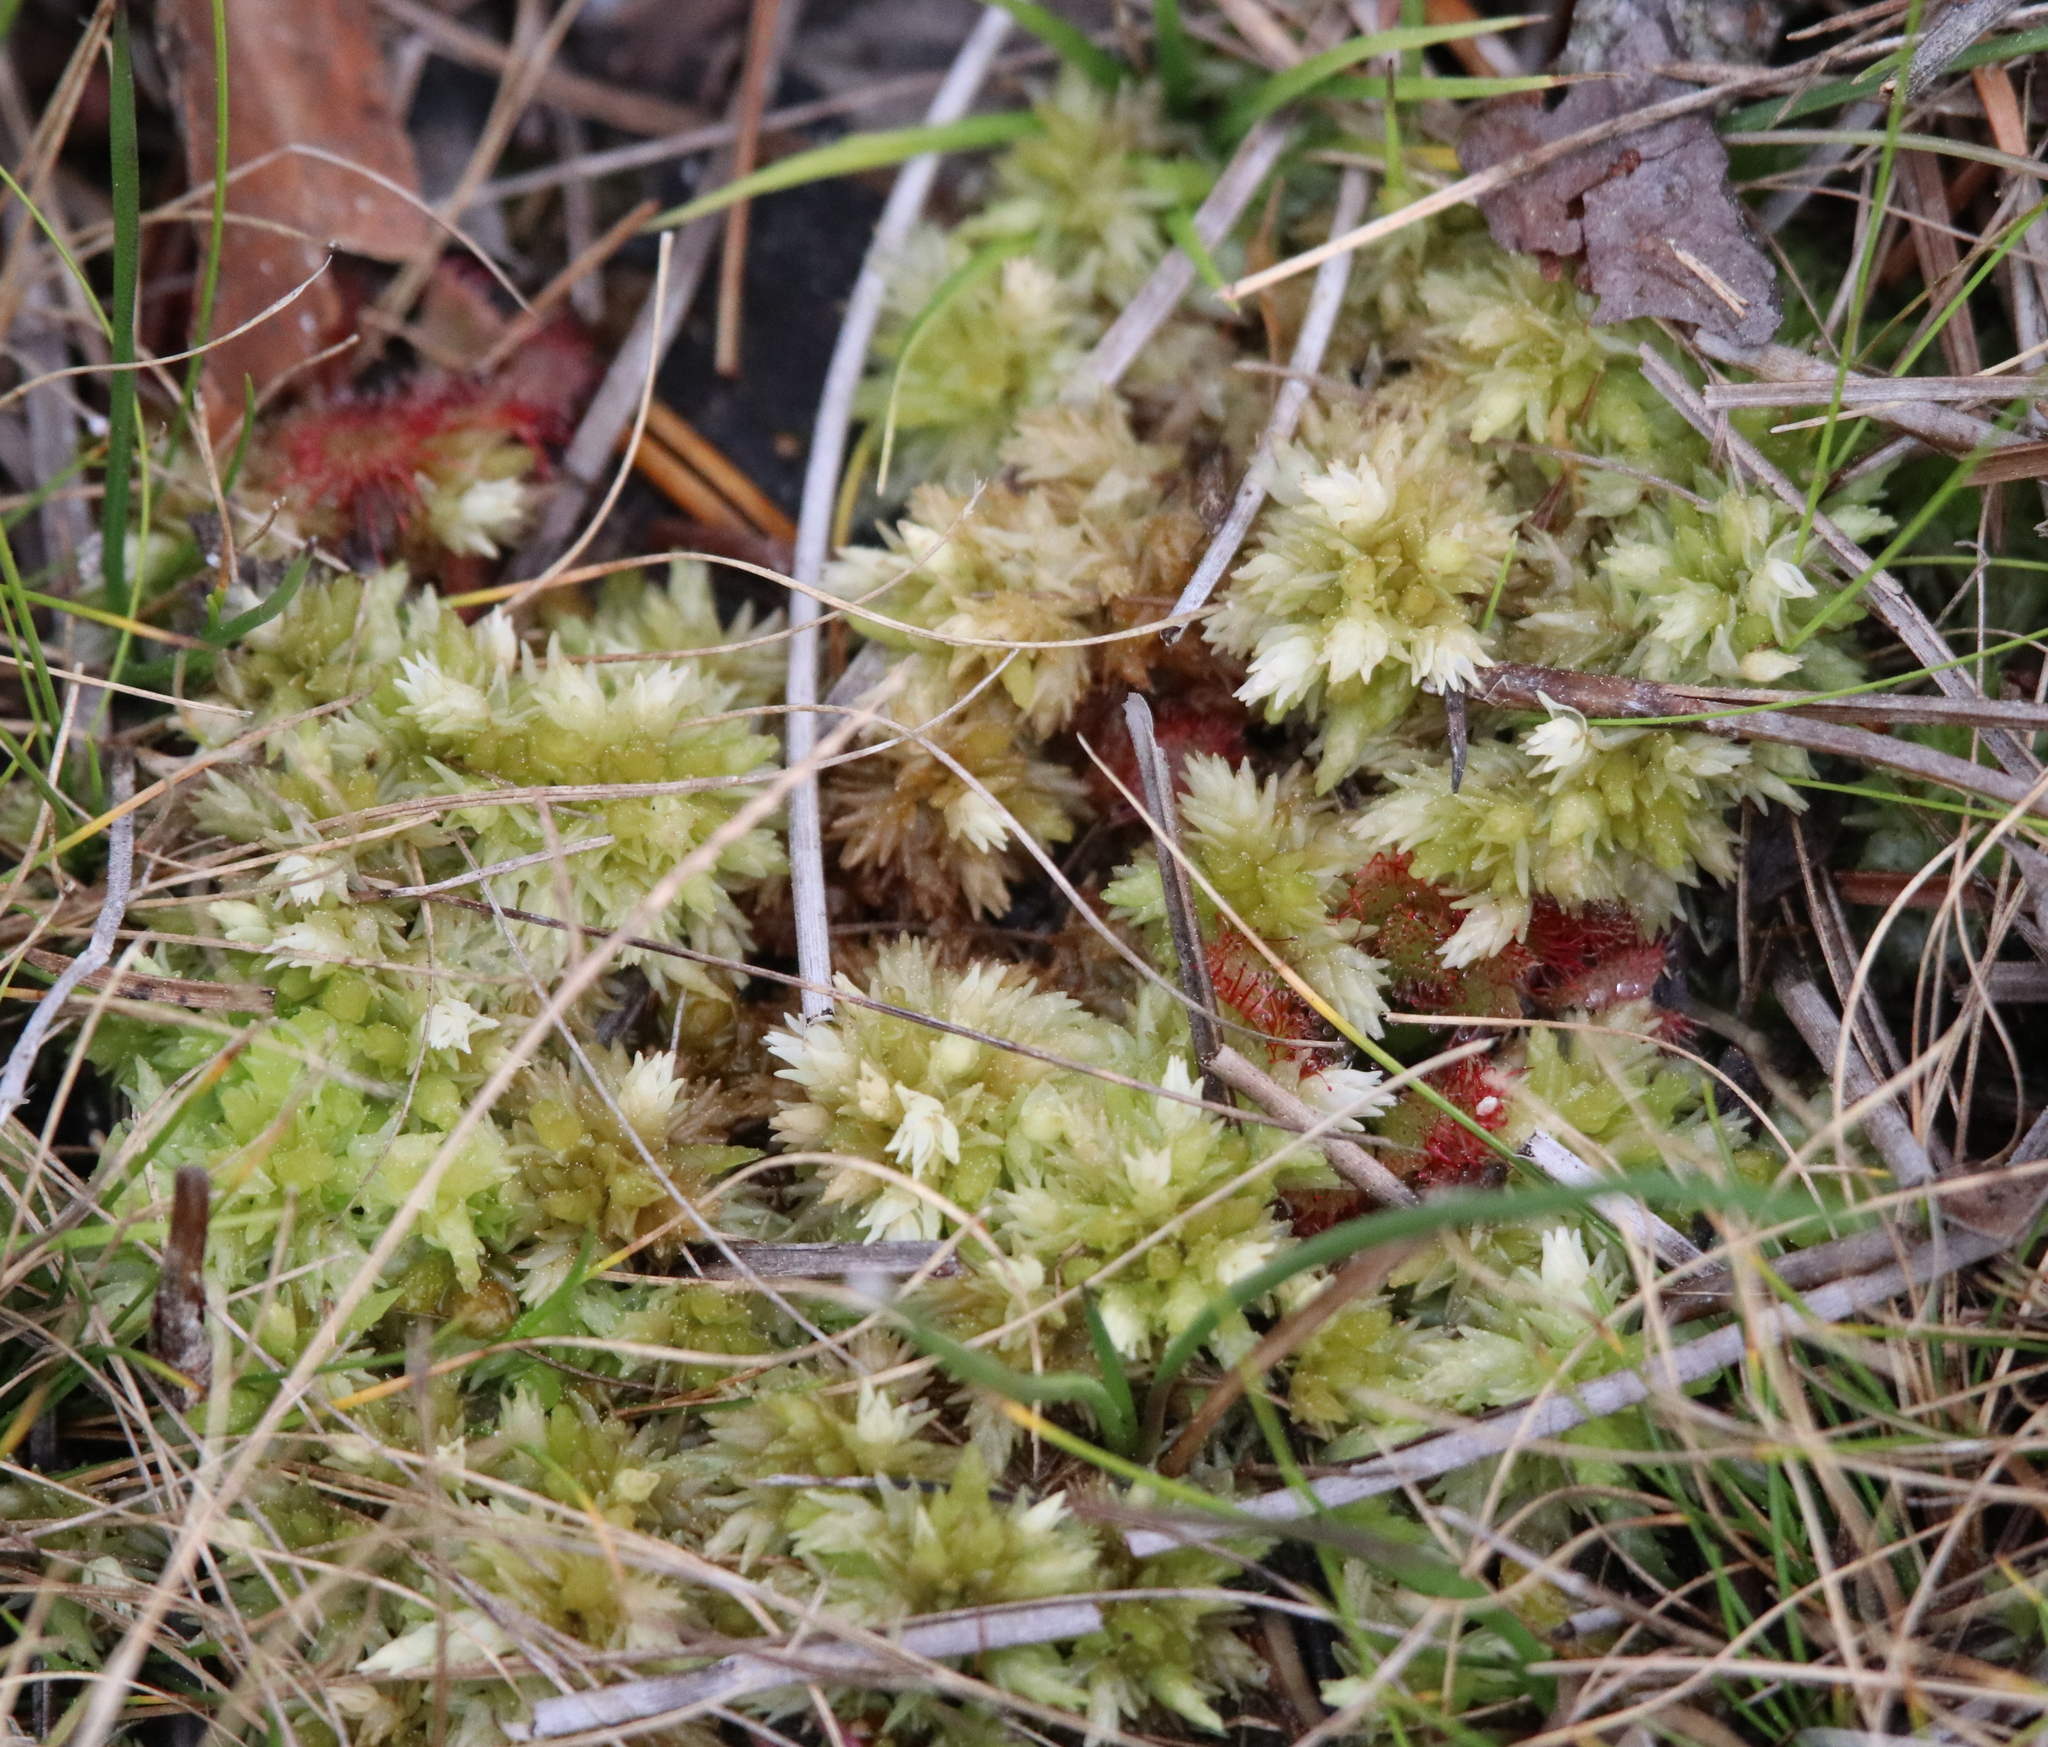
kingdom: Plantae
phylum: Bryophyta
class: Sphagnopsida
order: Sphagnales
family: Sphagnaceae
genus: Sphagnum
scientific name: Sphagnum perichaetiale
